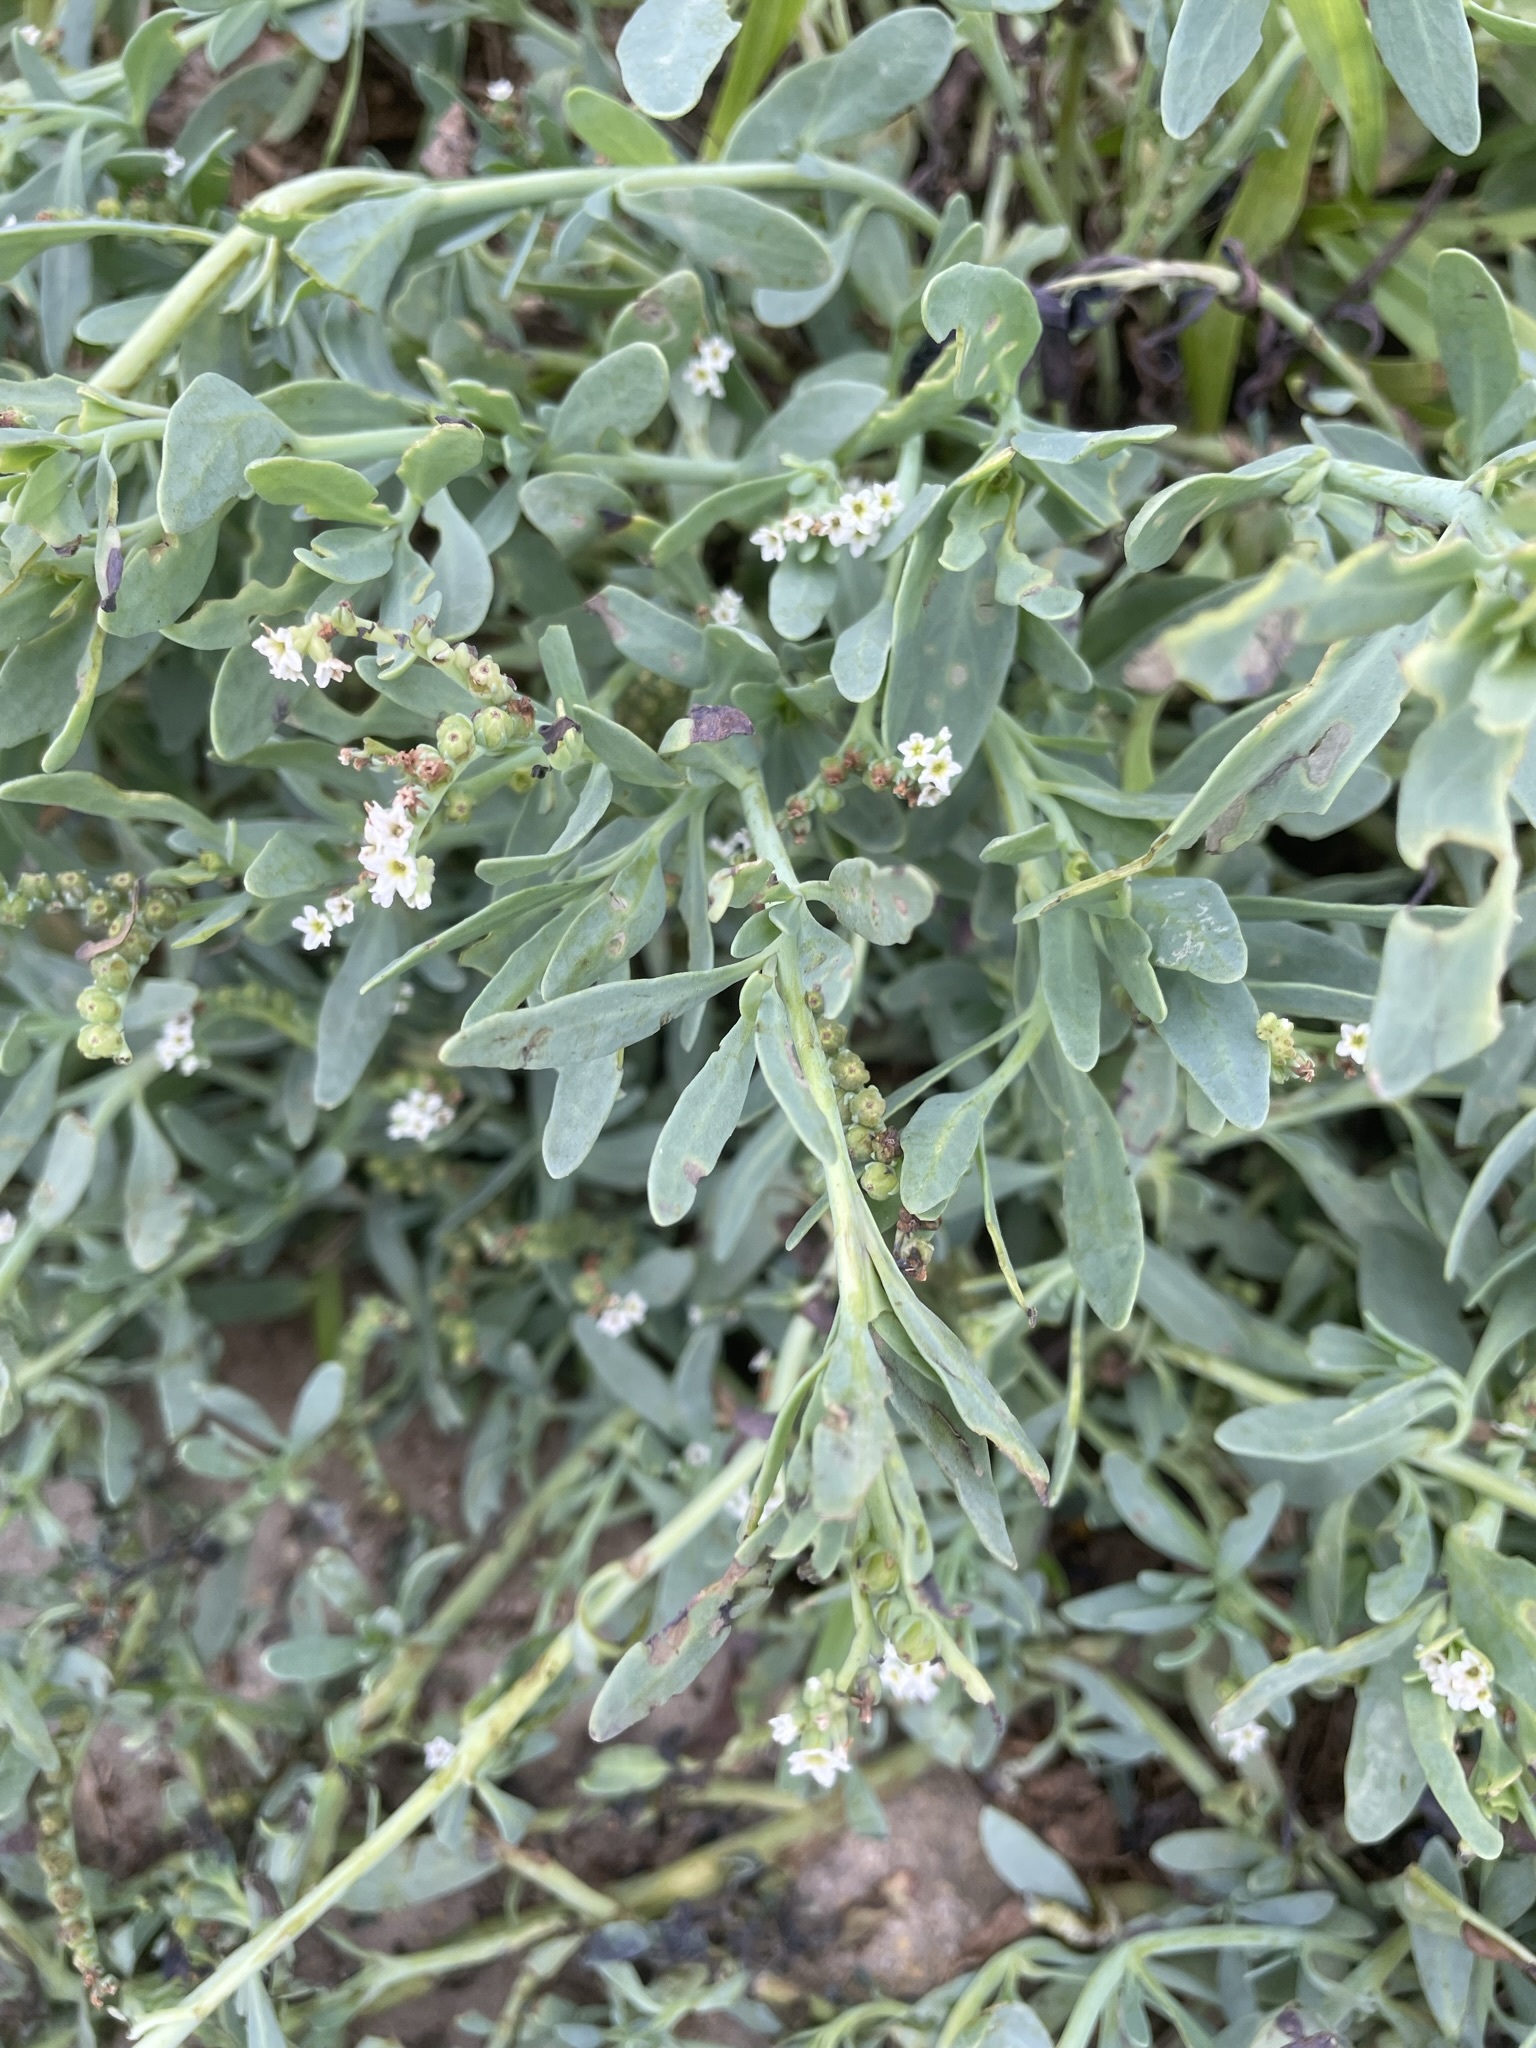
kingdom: Plantae
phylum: Tracheophyta
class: Magnoliopsida
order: Boraginales
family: Heliotropiaceae
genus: Heliotropium
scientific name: Heliotropium curassavicum
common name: Seaside heliotrope
